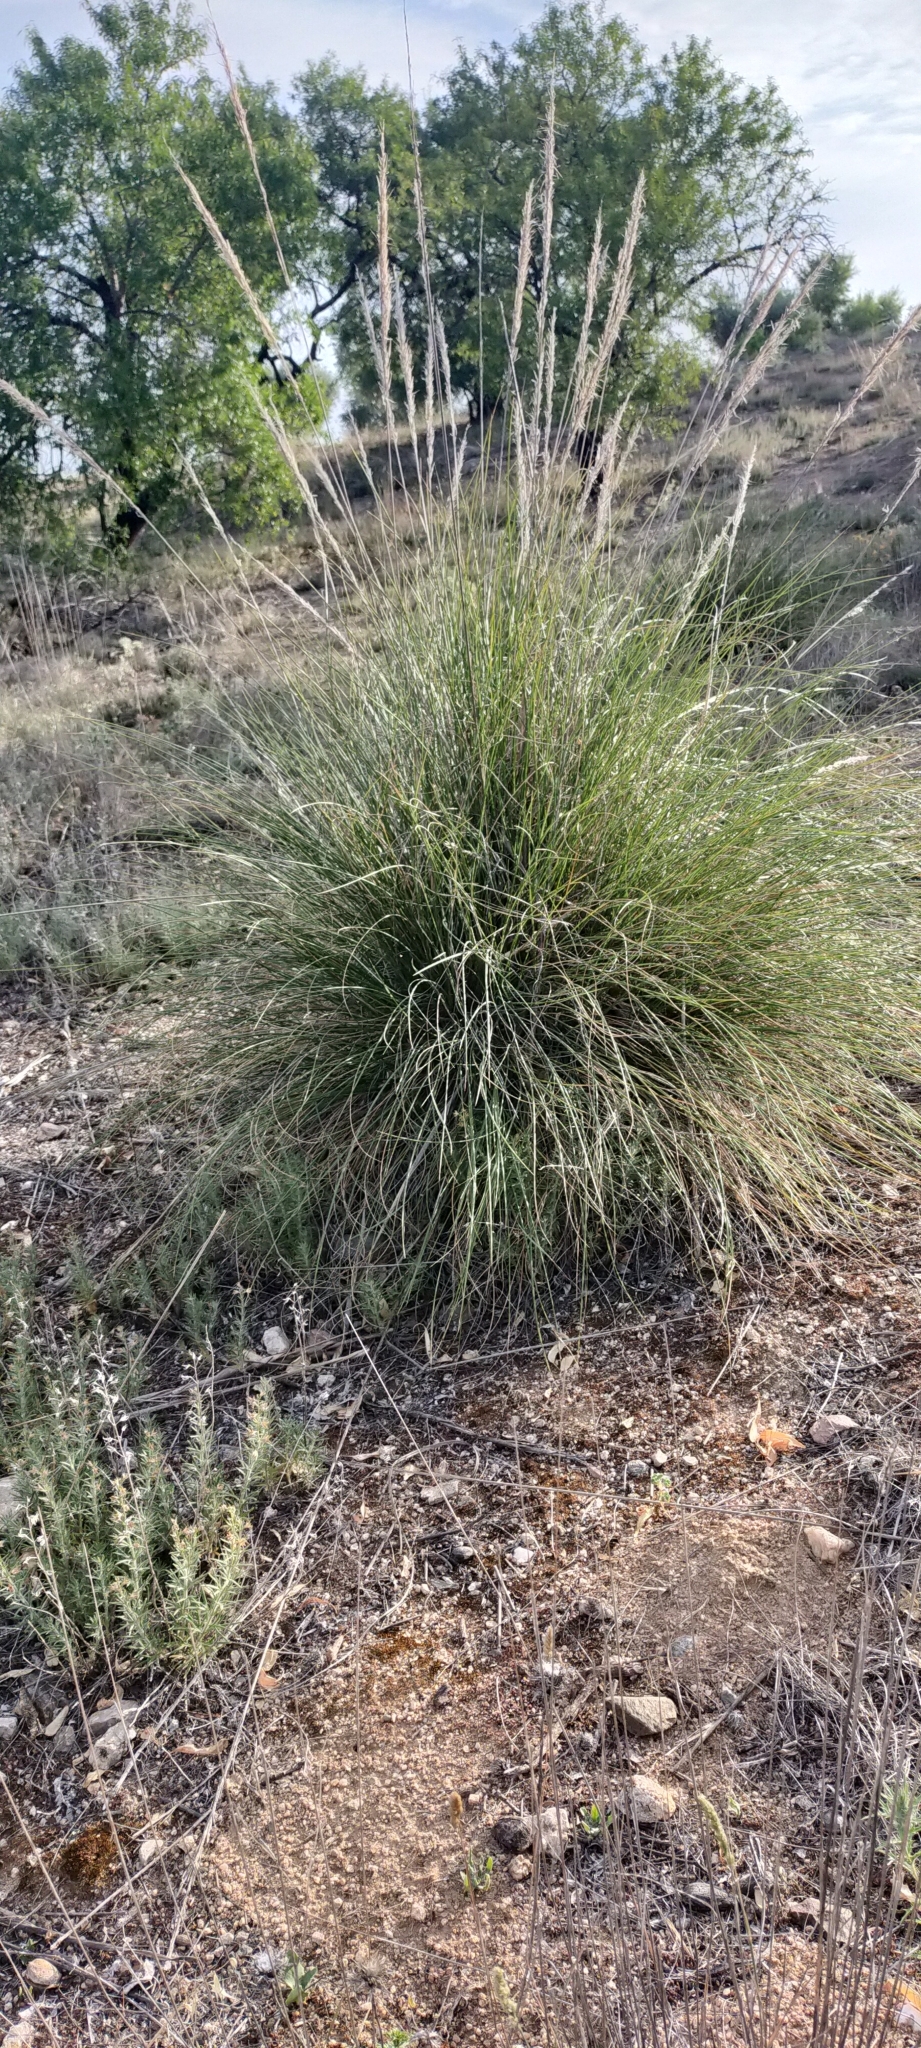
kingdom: Plantae
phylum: Tracheophyta
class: Liliopsida
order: Poales
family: Poaceae
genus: Macrochloa
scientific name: Macrochloa tenacissima
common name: Alfa grass
